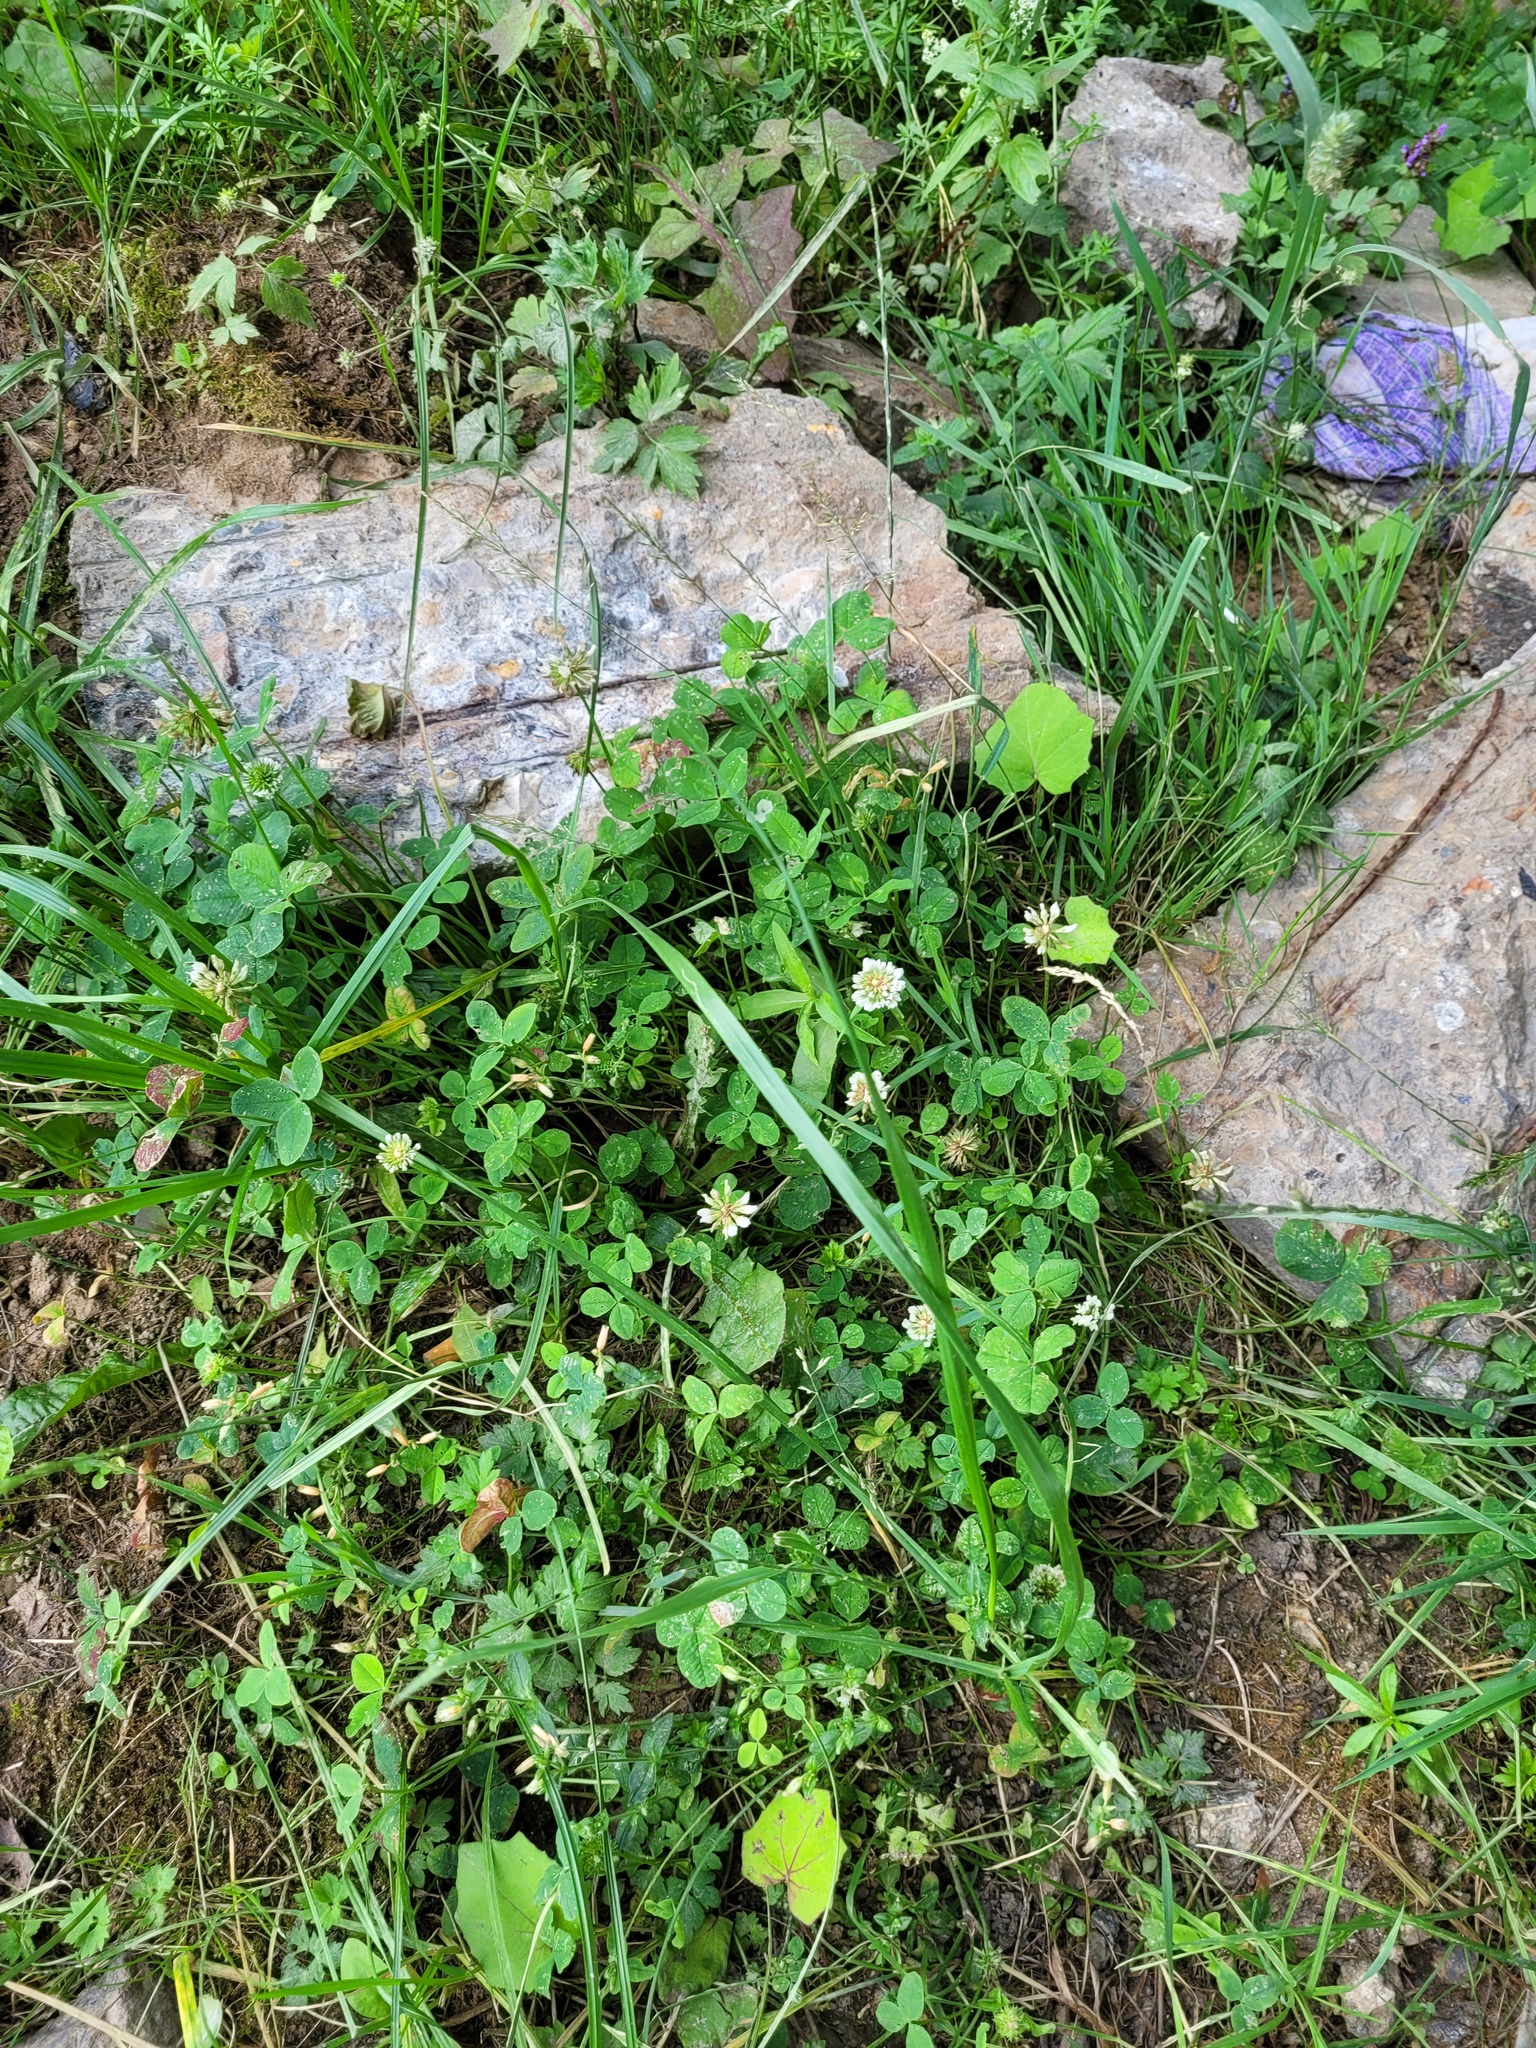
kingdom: Plantae
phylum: Tracheophyta
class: Magnoliopsida
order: Fabales
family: Fabaceae
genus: Trifolium
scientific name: Trifolium repens
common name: White clover
